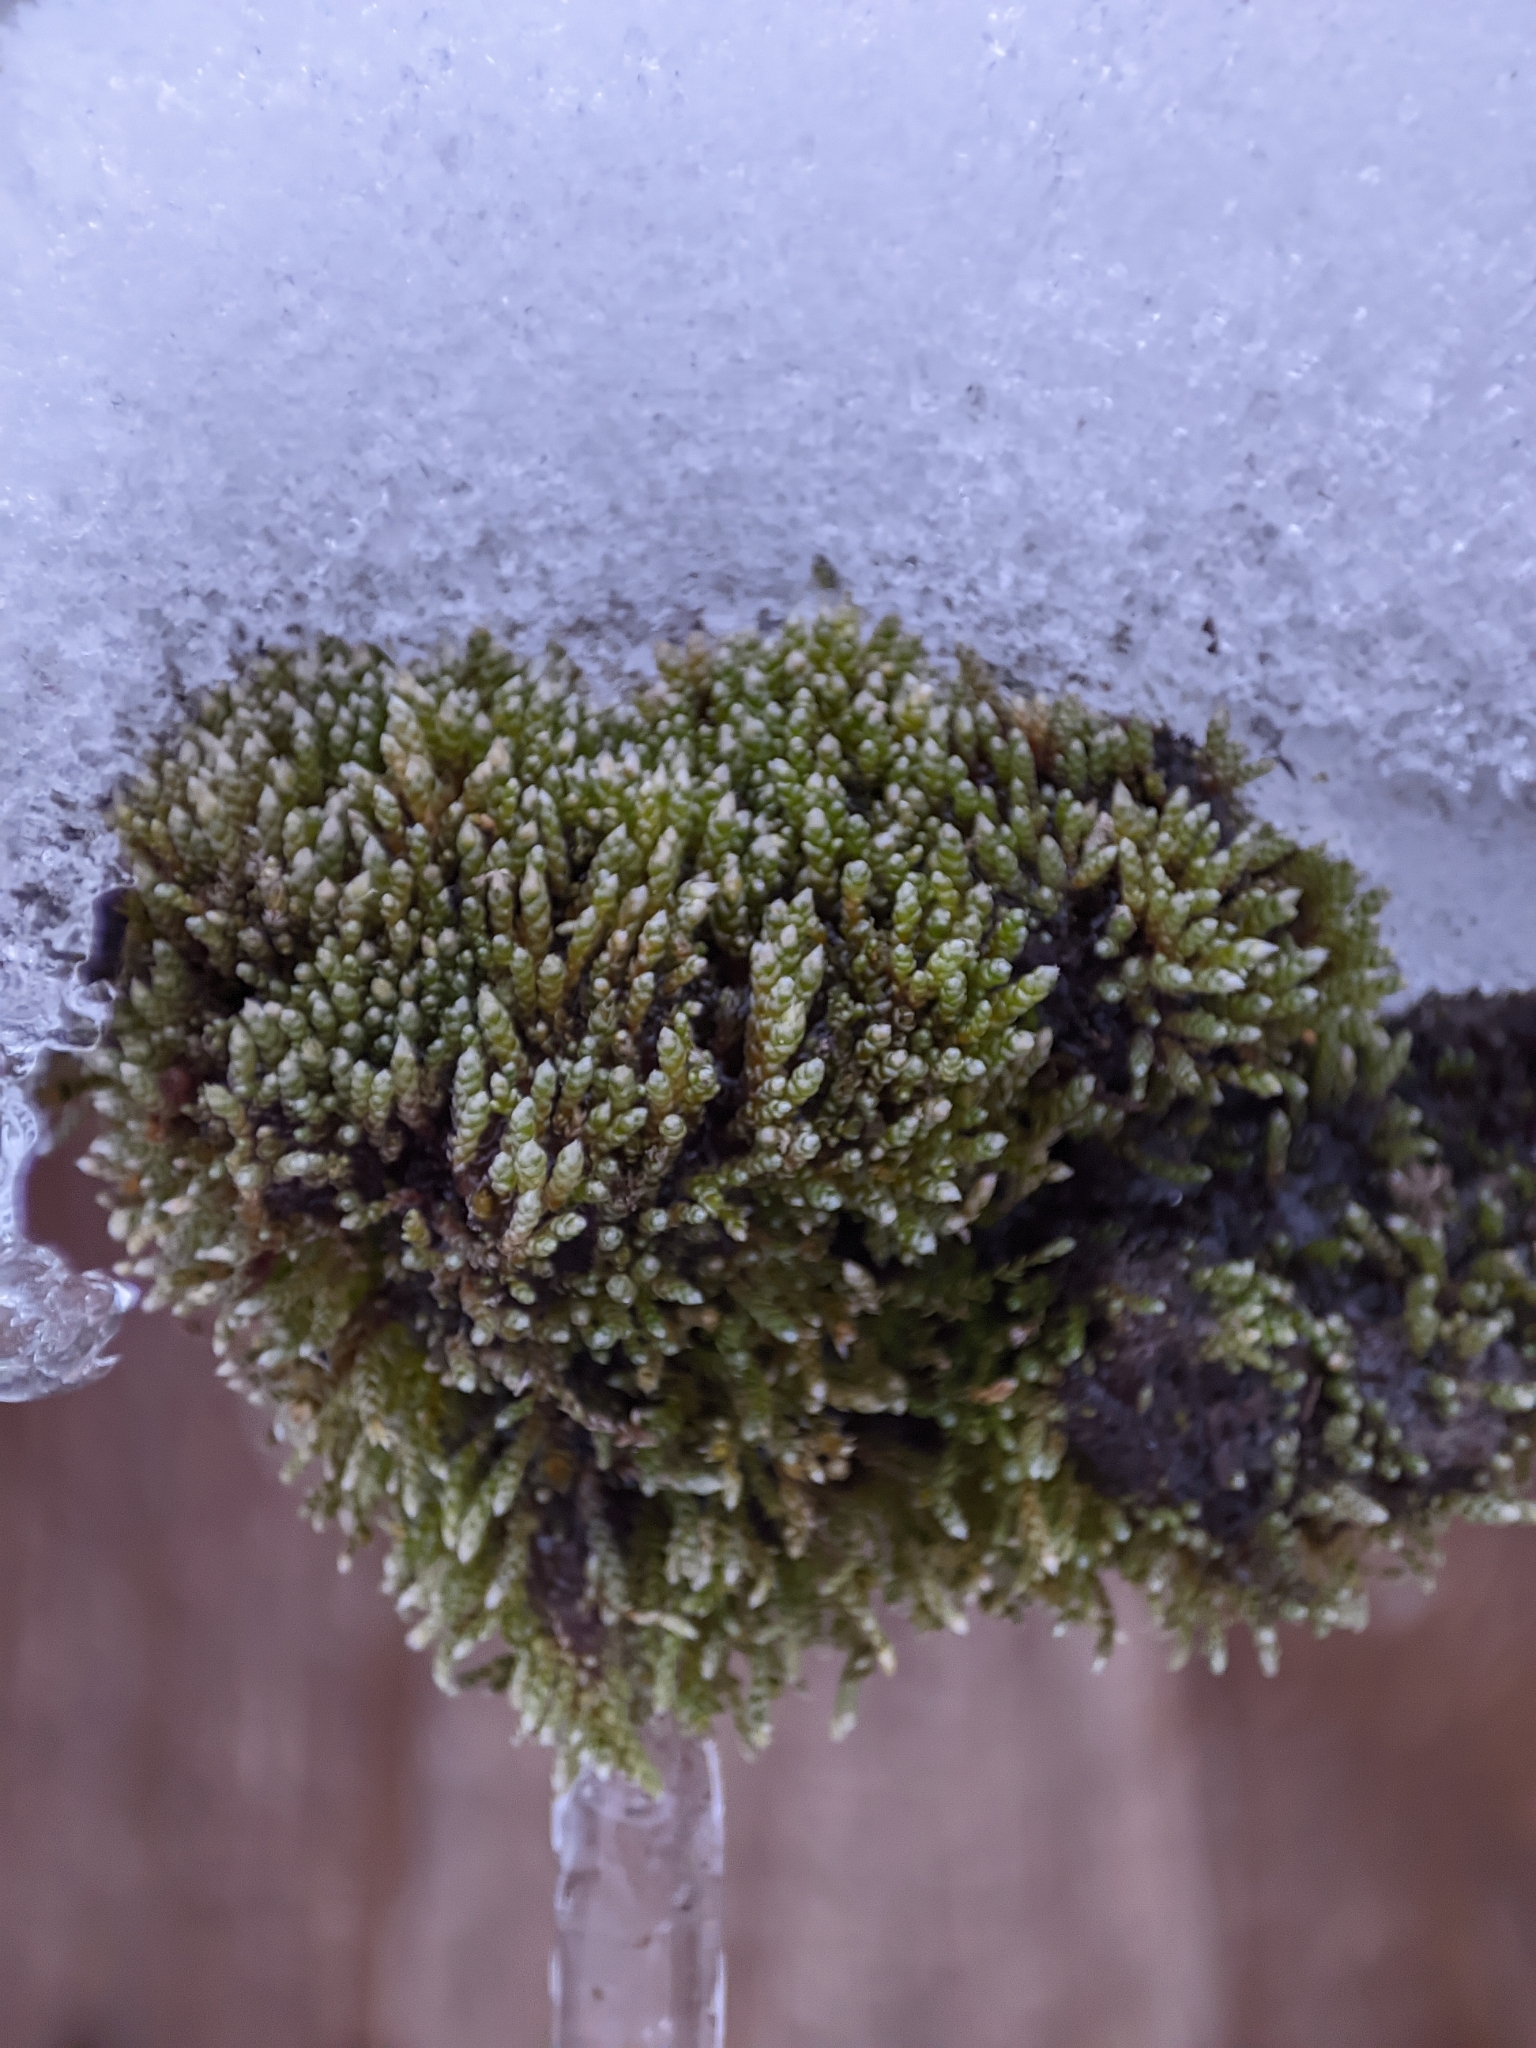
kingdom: Plantae
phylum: Bryophyta
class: Bryopsida
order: Bryales
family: Bryaceae
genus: Bryum
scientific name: Bryum argenteum
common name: Silver-moss
